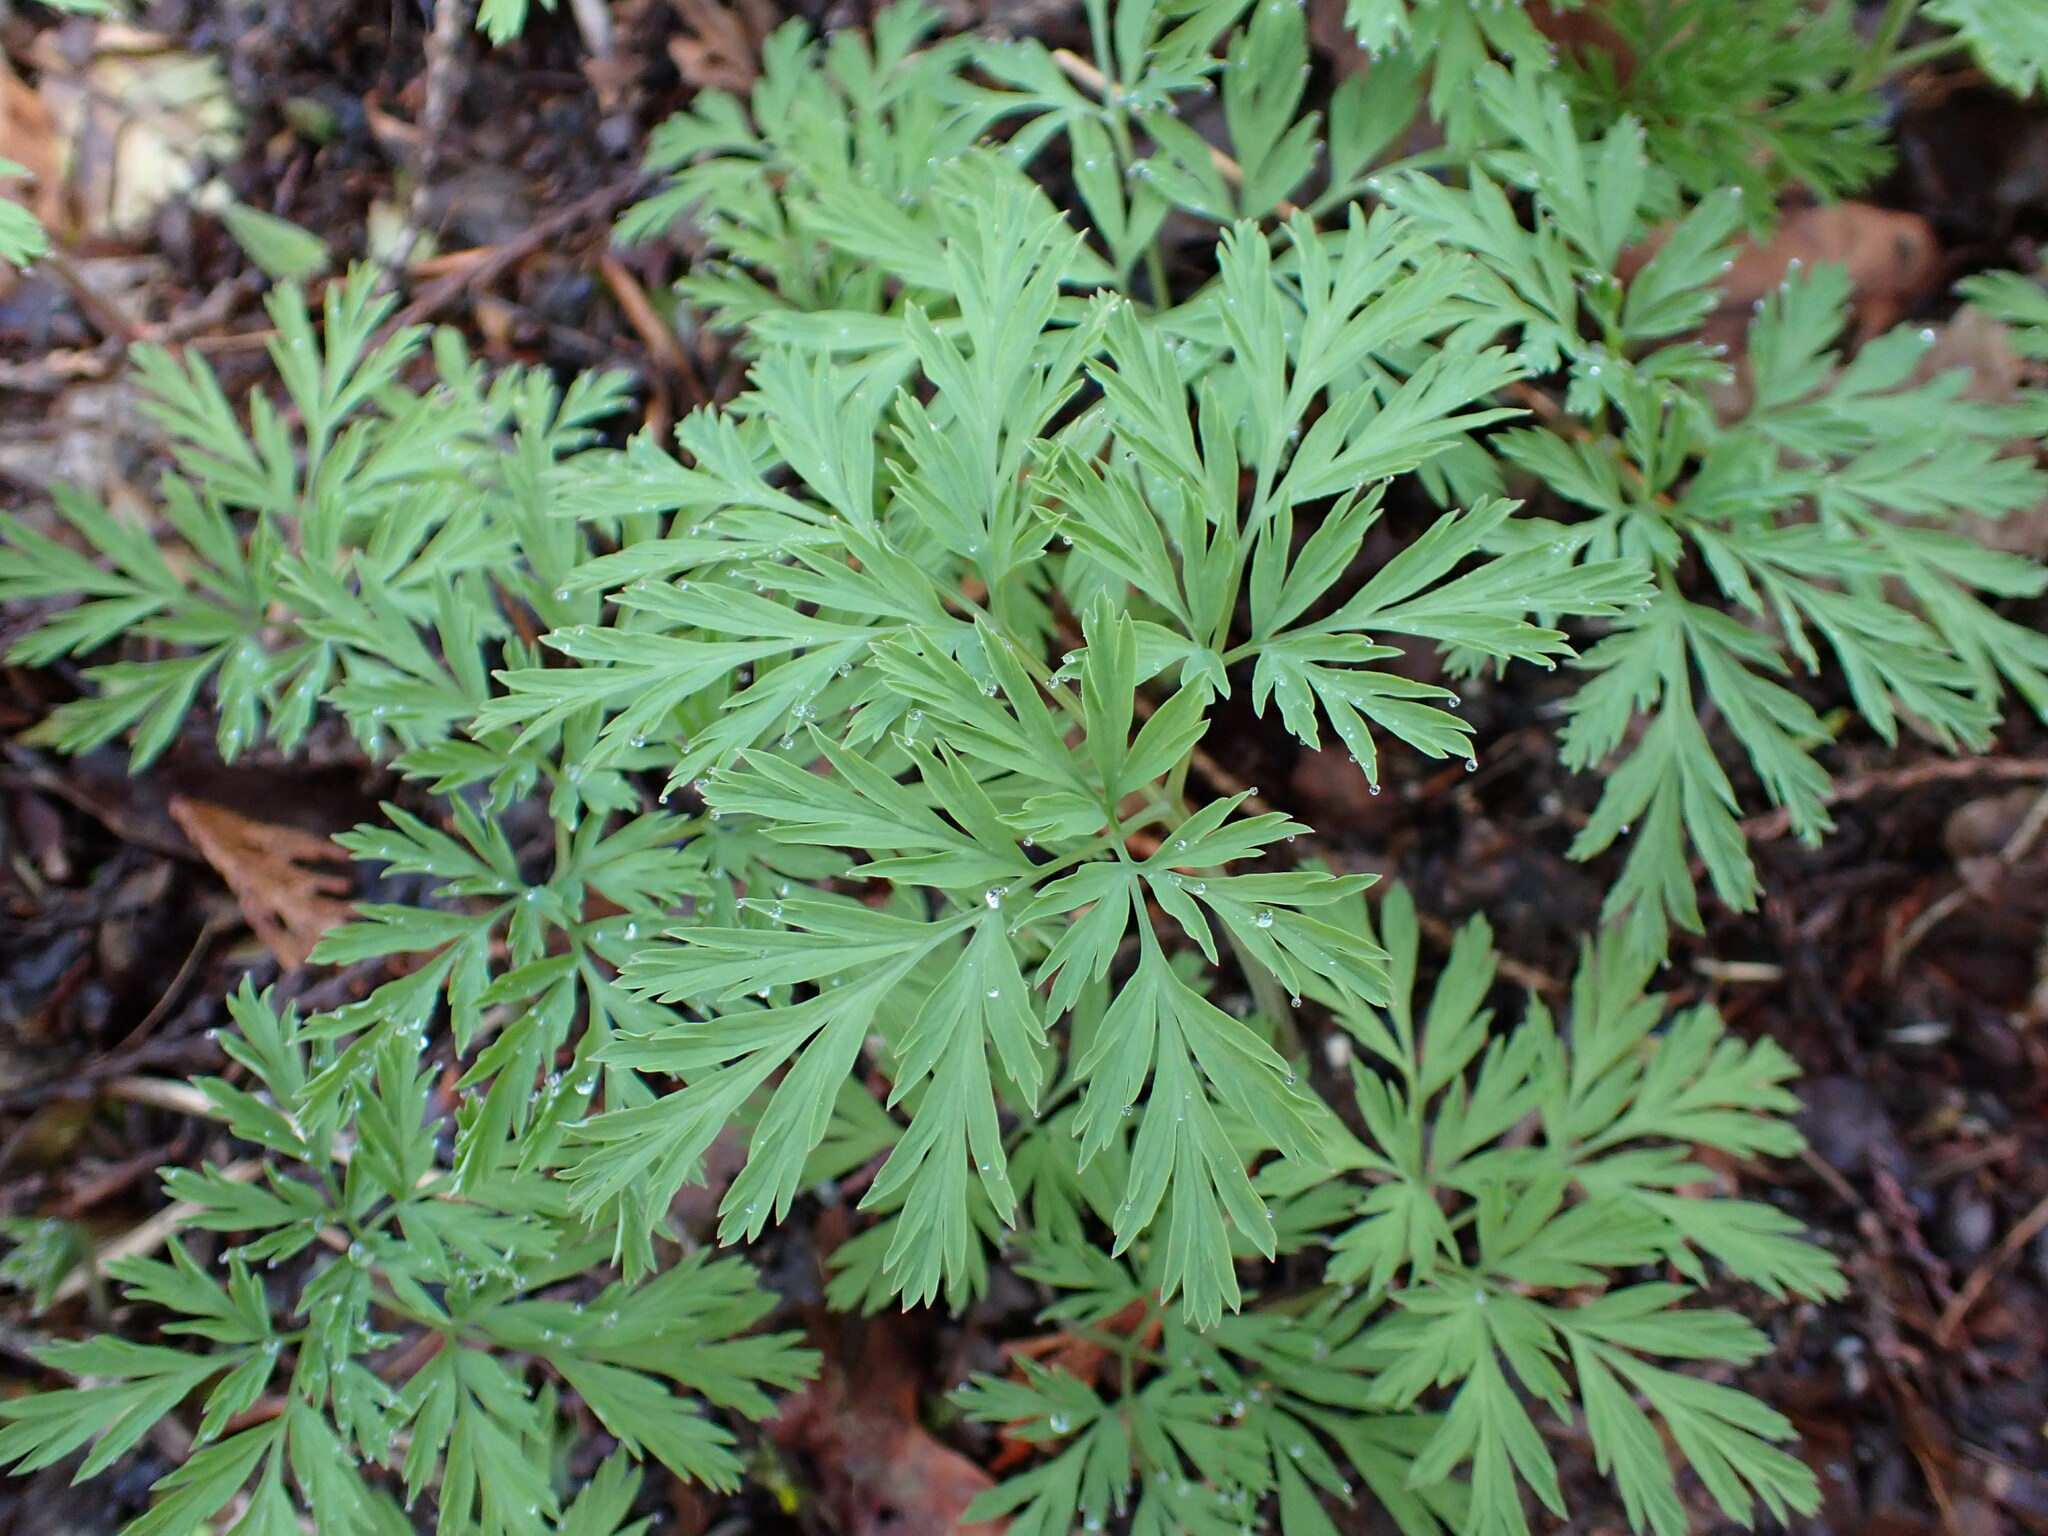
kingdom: Plantae
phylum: Tracheophyta
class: Magnoliopsida
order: Ranunculales
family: Papaveraceae
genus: Dicentra
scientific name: Dicentra formosa
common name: Bleeding-heart
